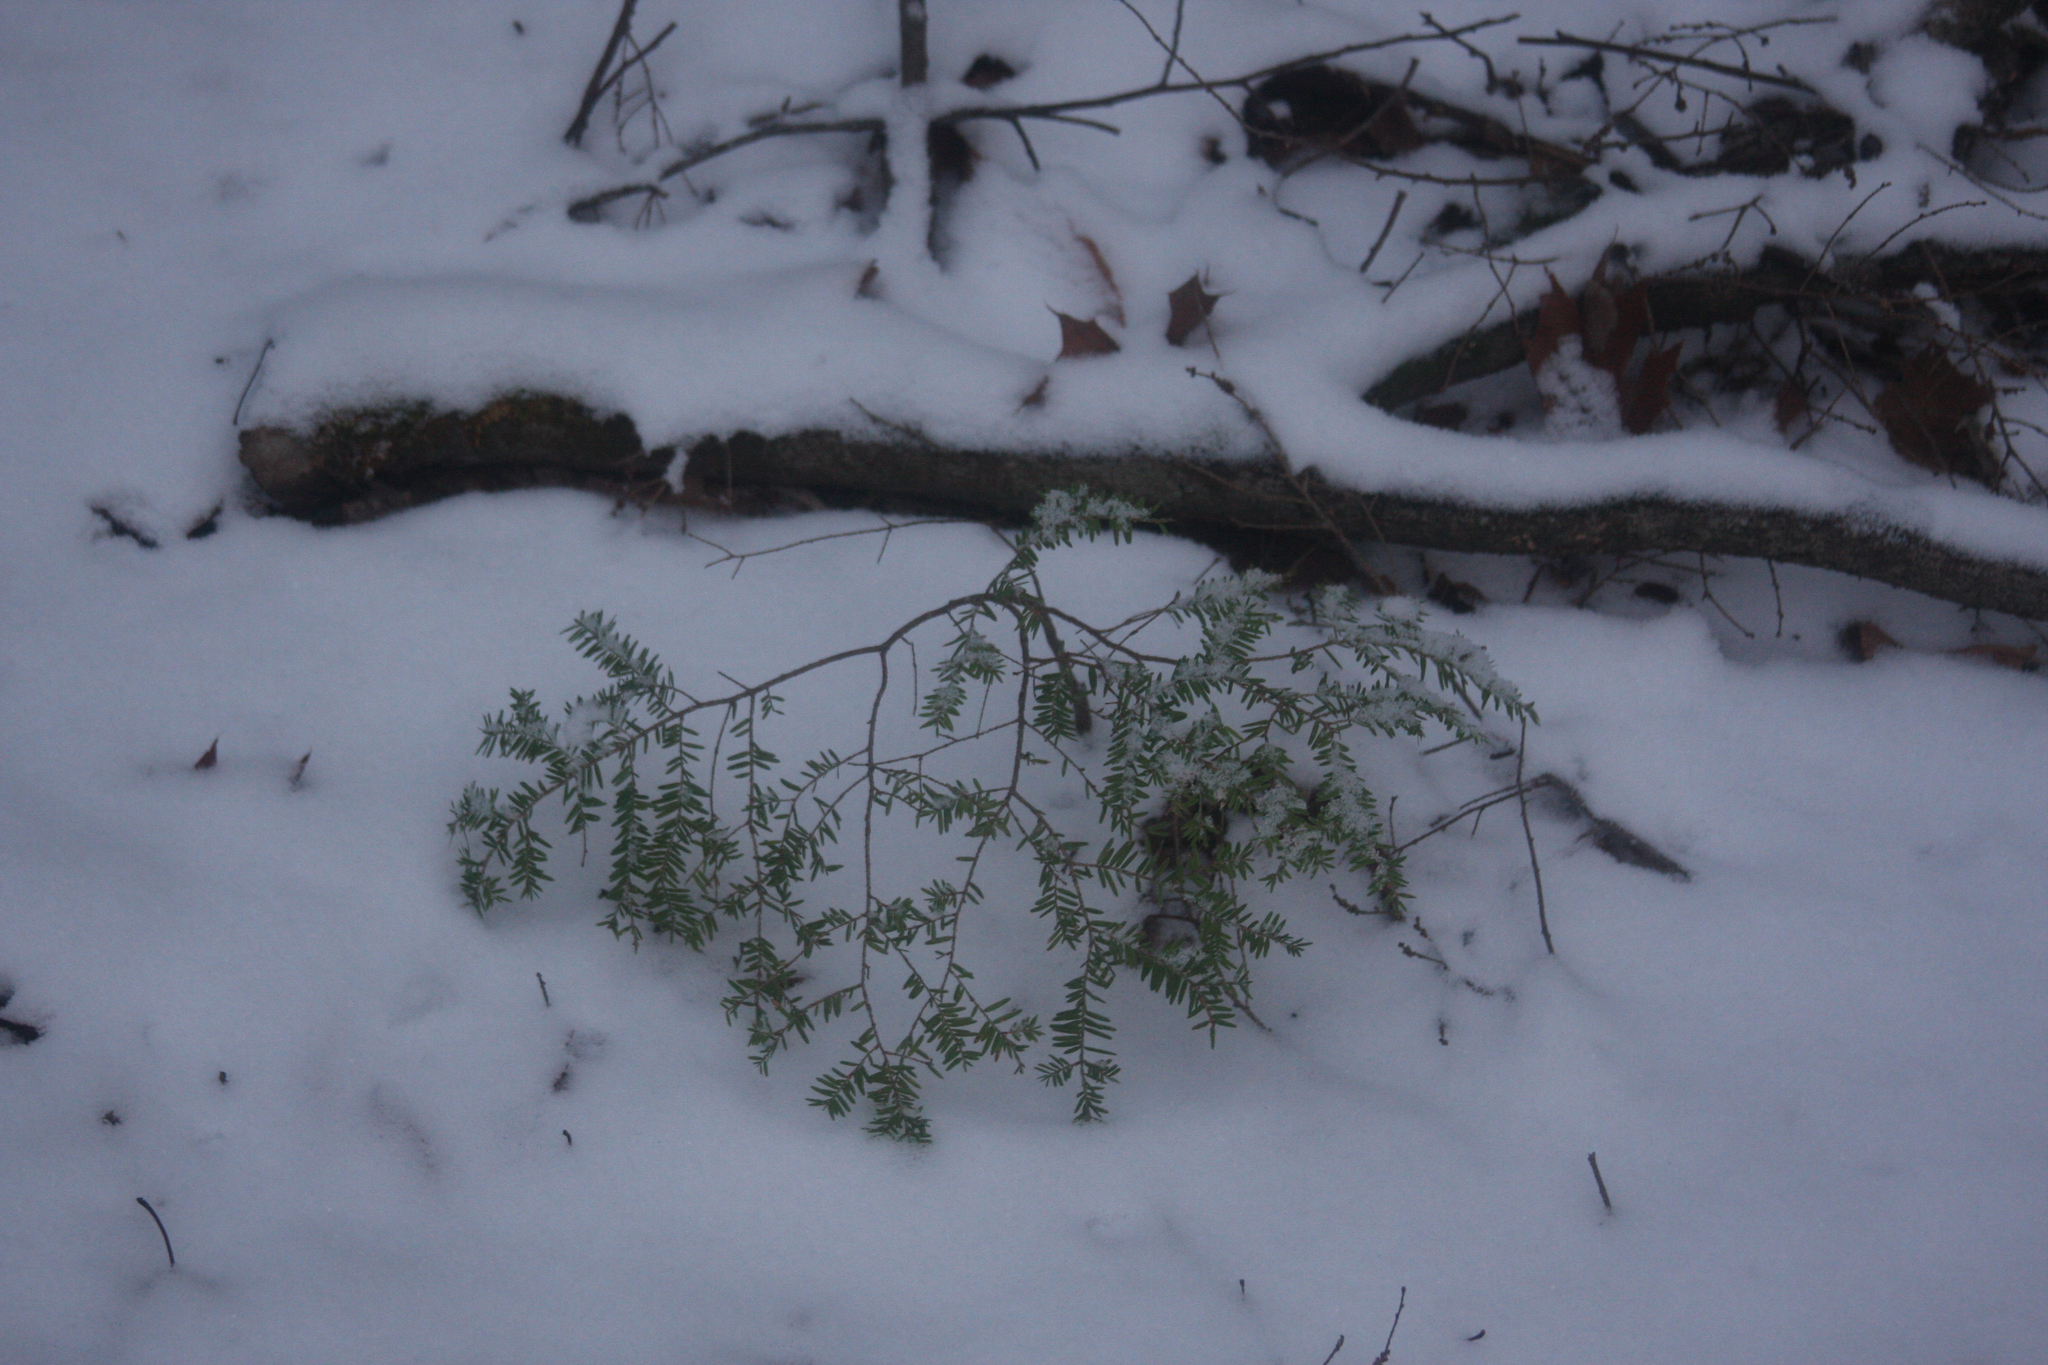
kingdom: Plantae
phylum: Tracheophyta
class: Pinopsida
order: Pinales
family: Pinaceae
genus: Tsuga
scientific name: Tsuga canadensis
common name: Eastern hemlock
